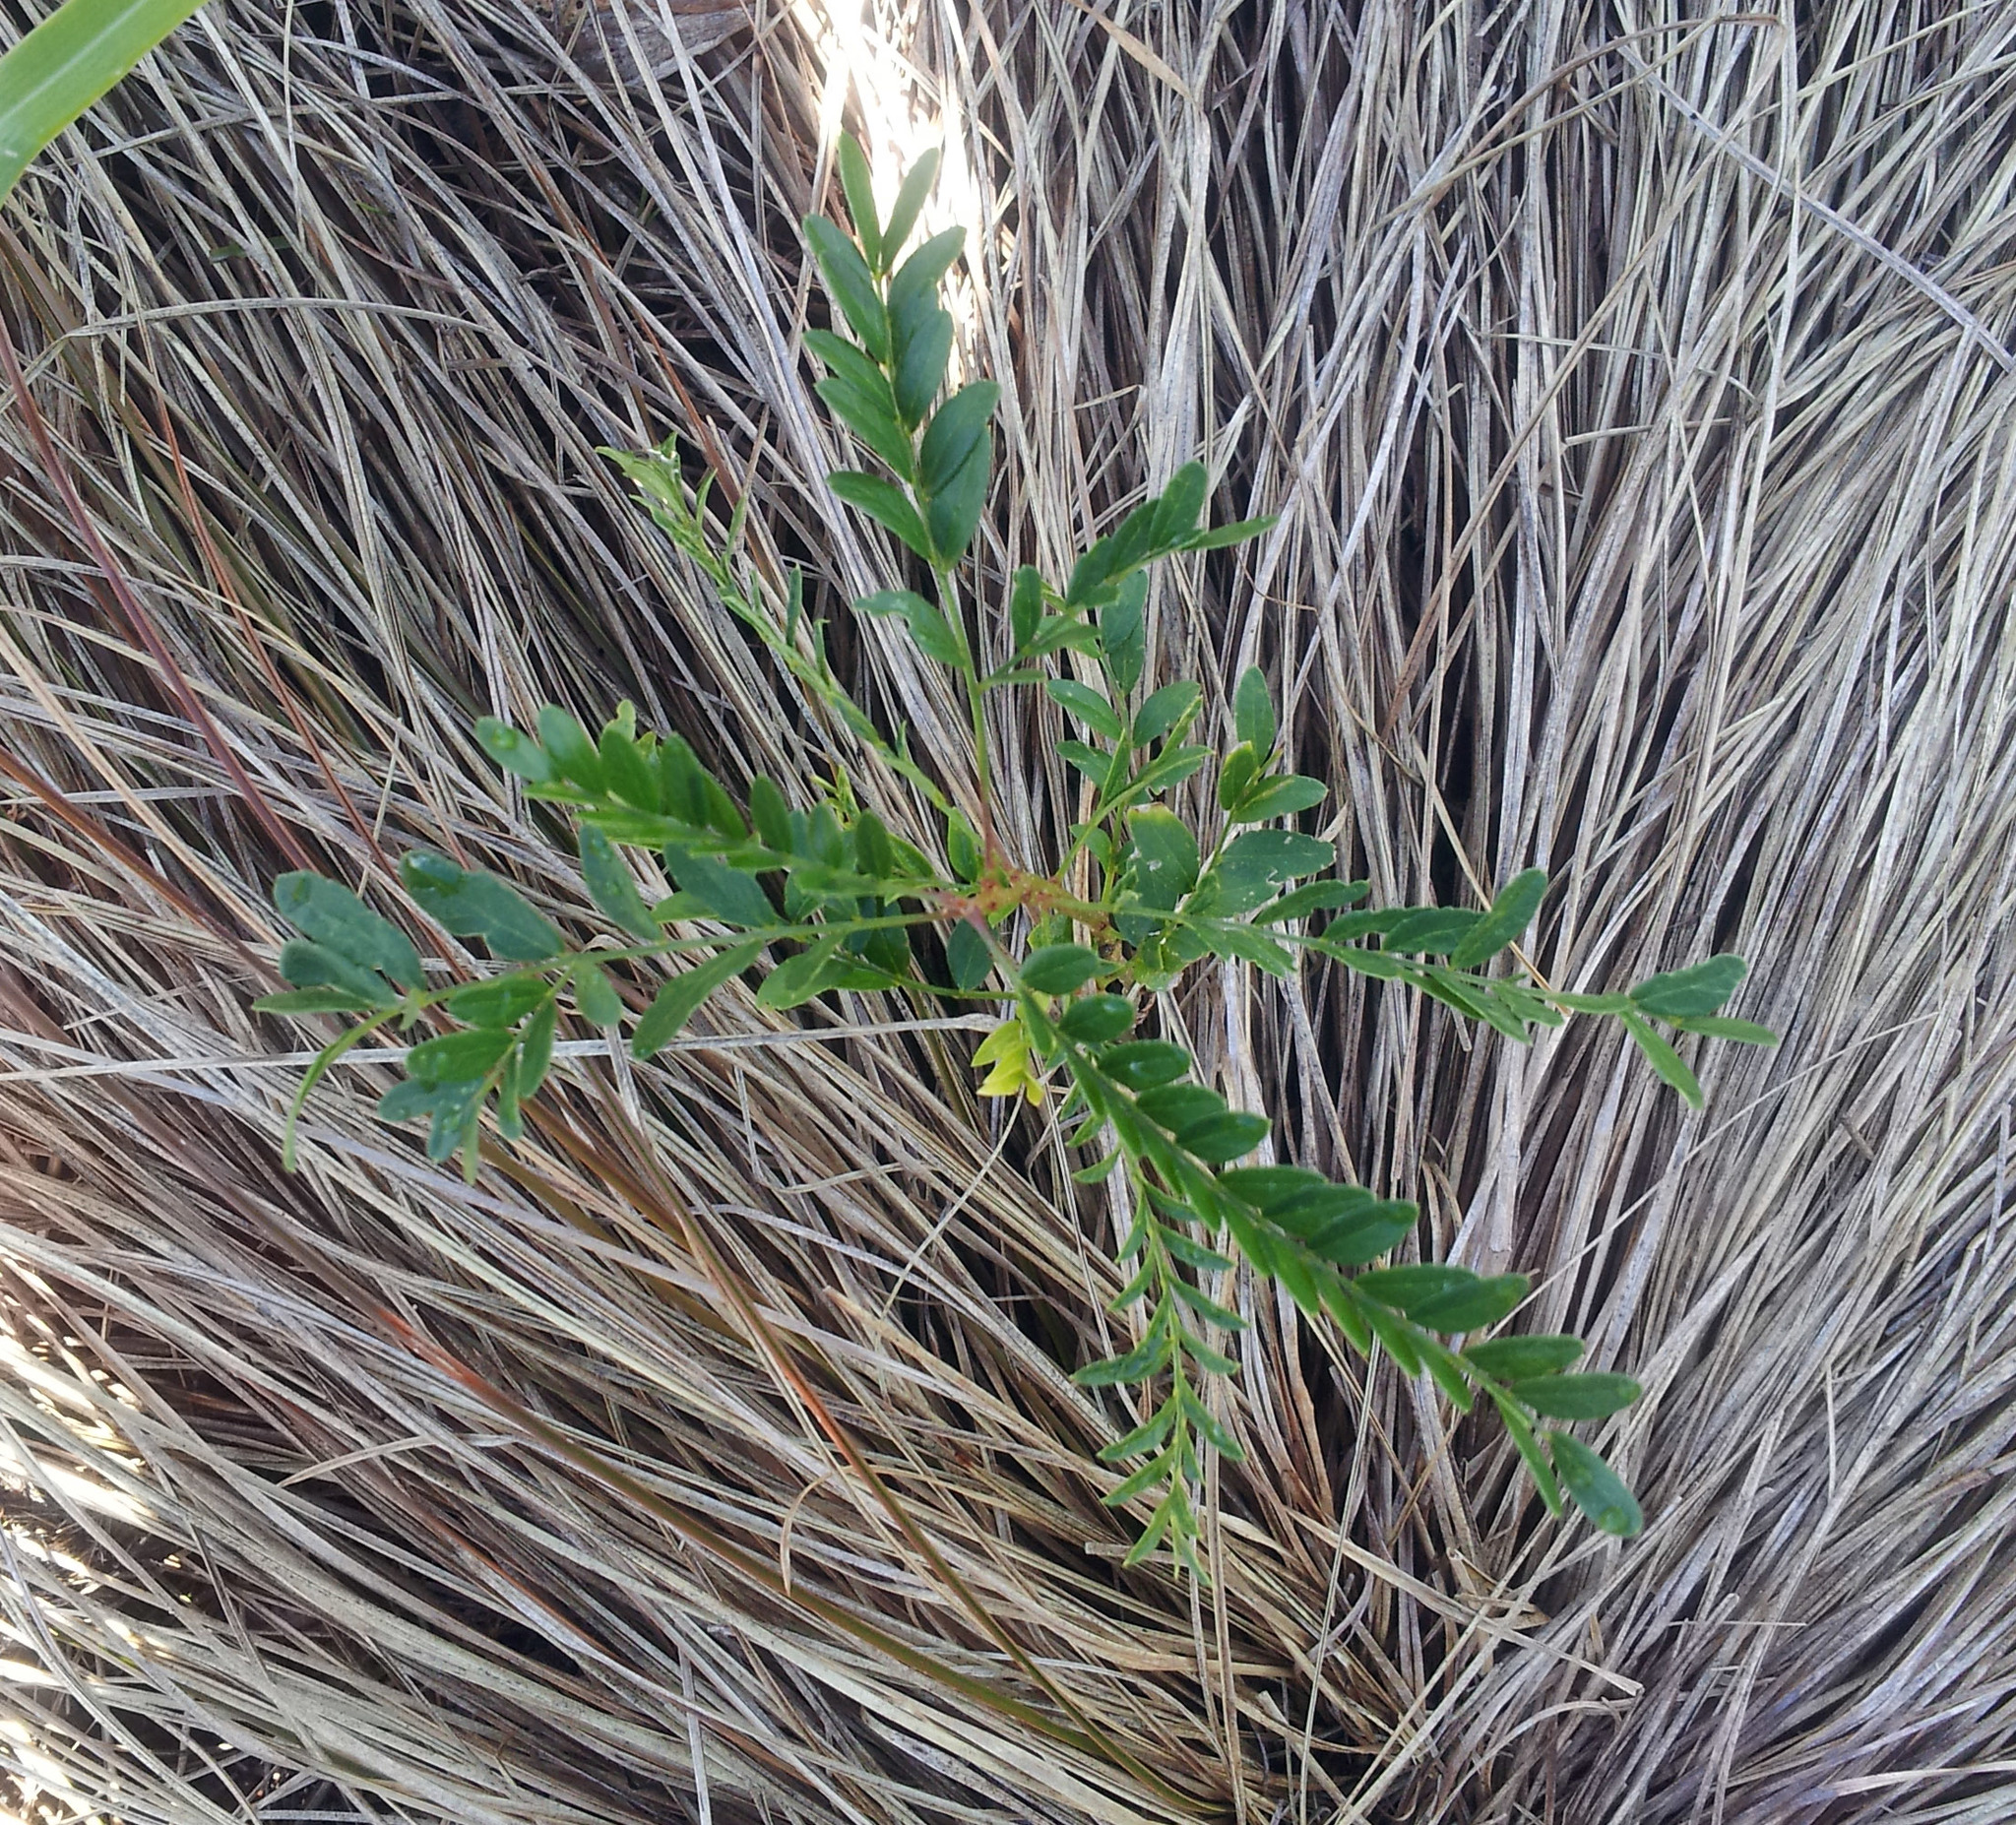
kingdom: Plantae
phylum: Tracheophyta
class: Magnoliopsida
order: Fabales
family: Fabaceae
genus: Gleditsia
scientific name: Gleditsia triacanthos
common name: Common honeylocust
